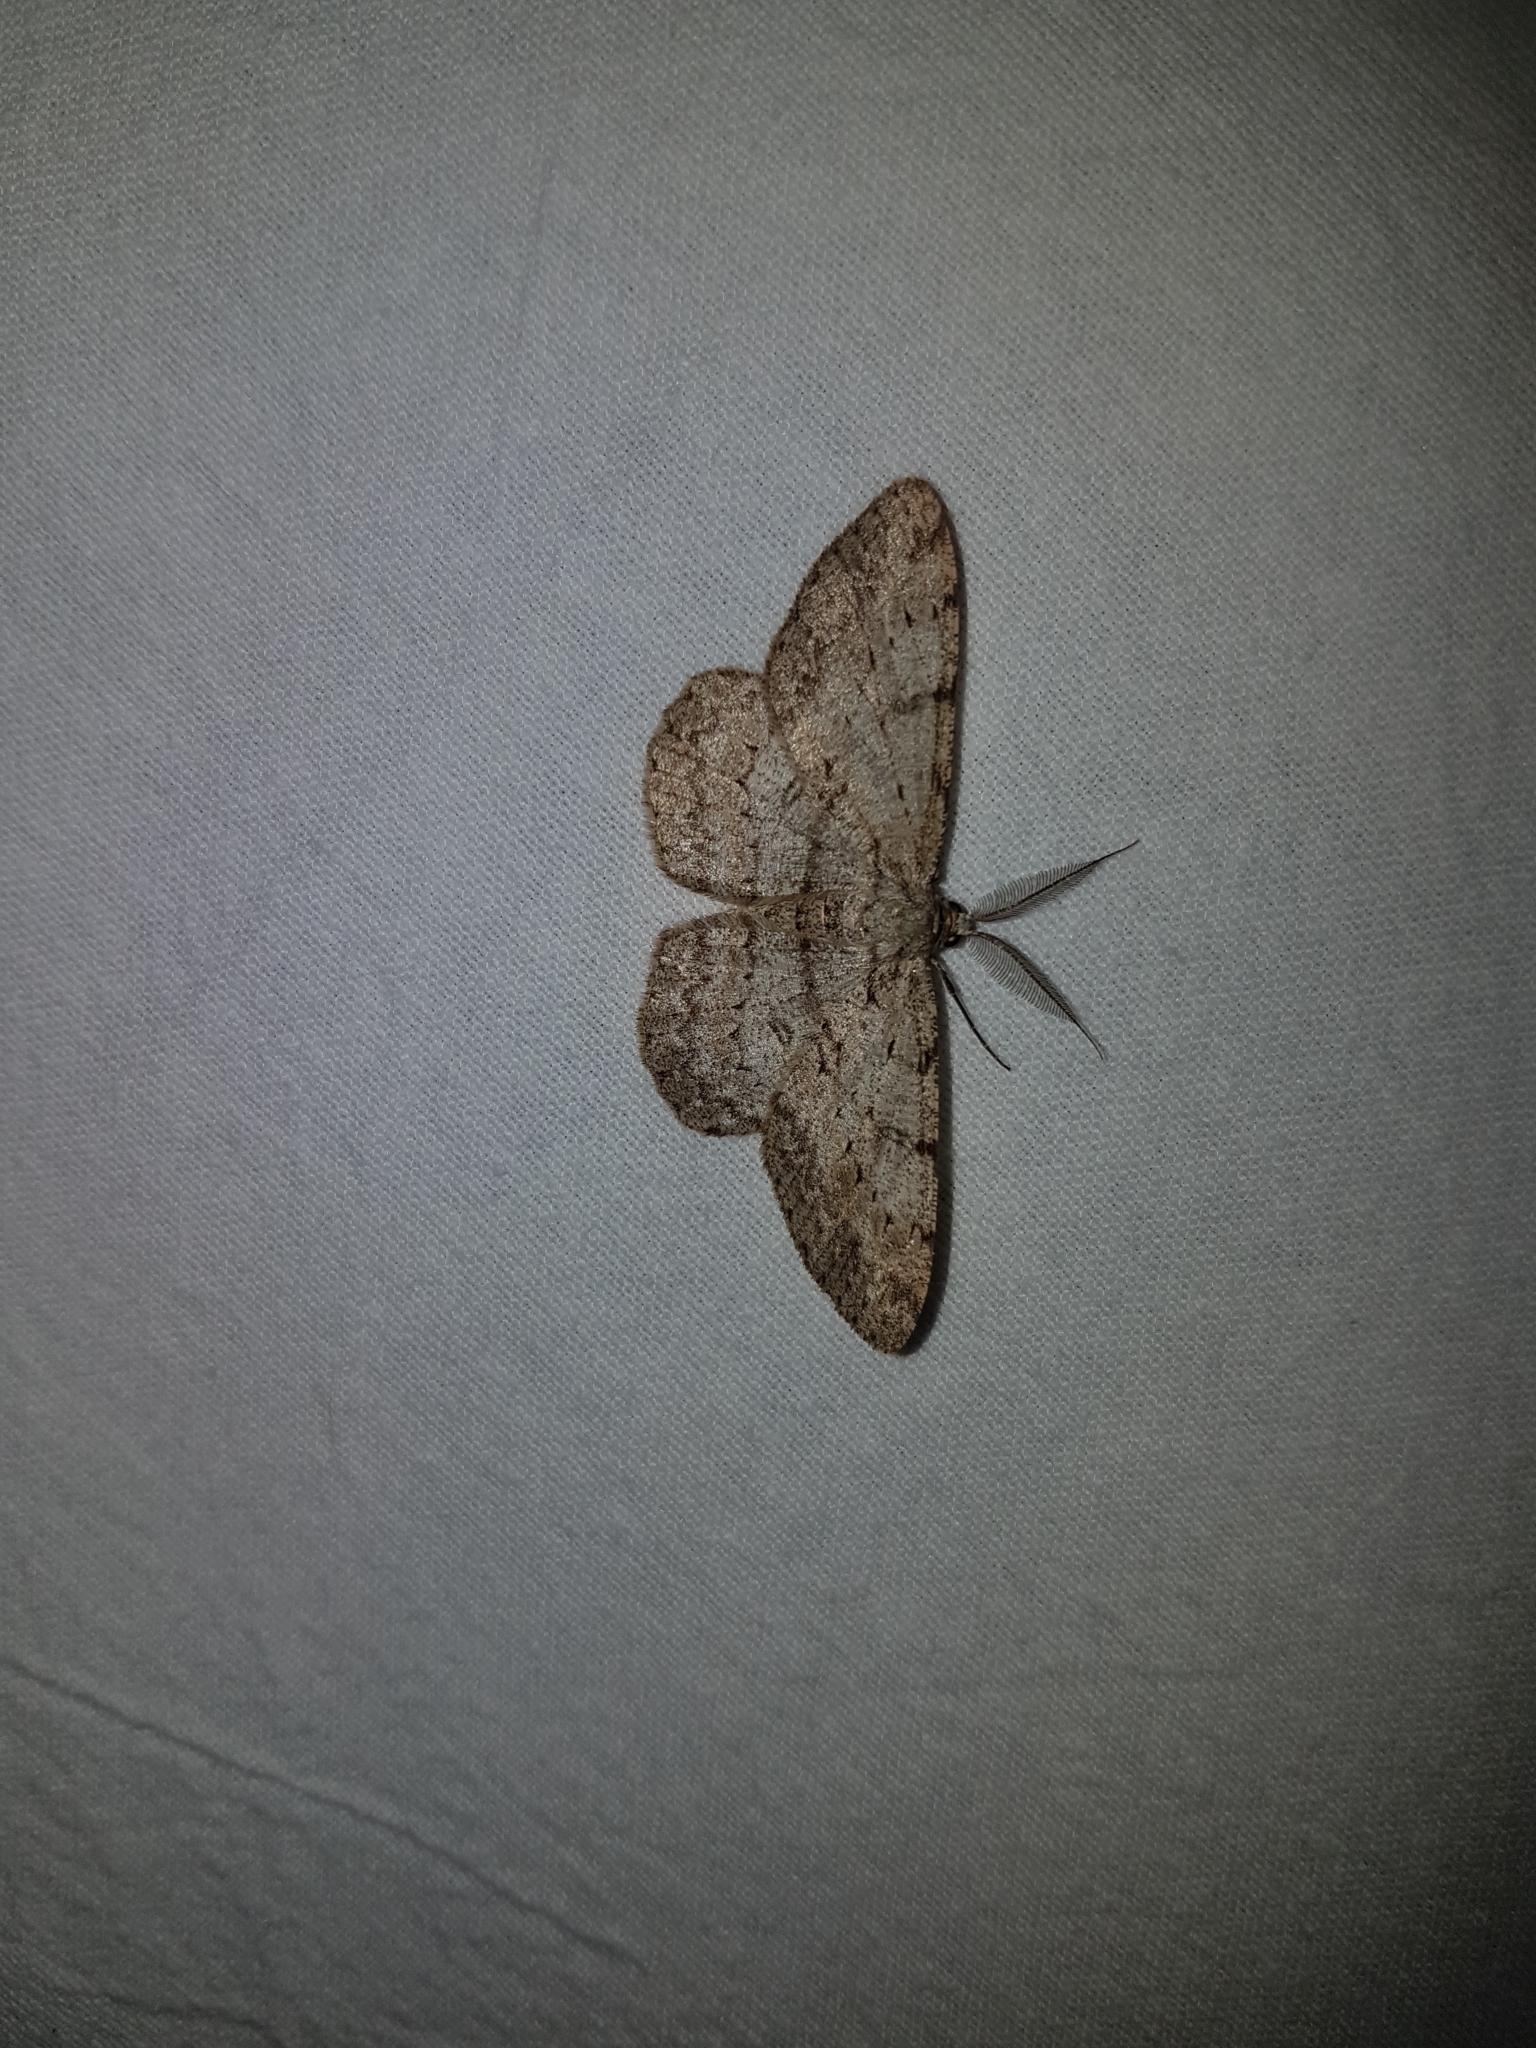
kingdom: Animalia
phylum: Arthropoda
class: Insecta
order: Lepidoptera
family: Geometridae
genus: Hypomecis
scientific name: Hypomecis punctinalis
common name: Pale oak beauty
